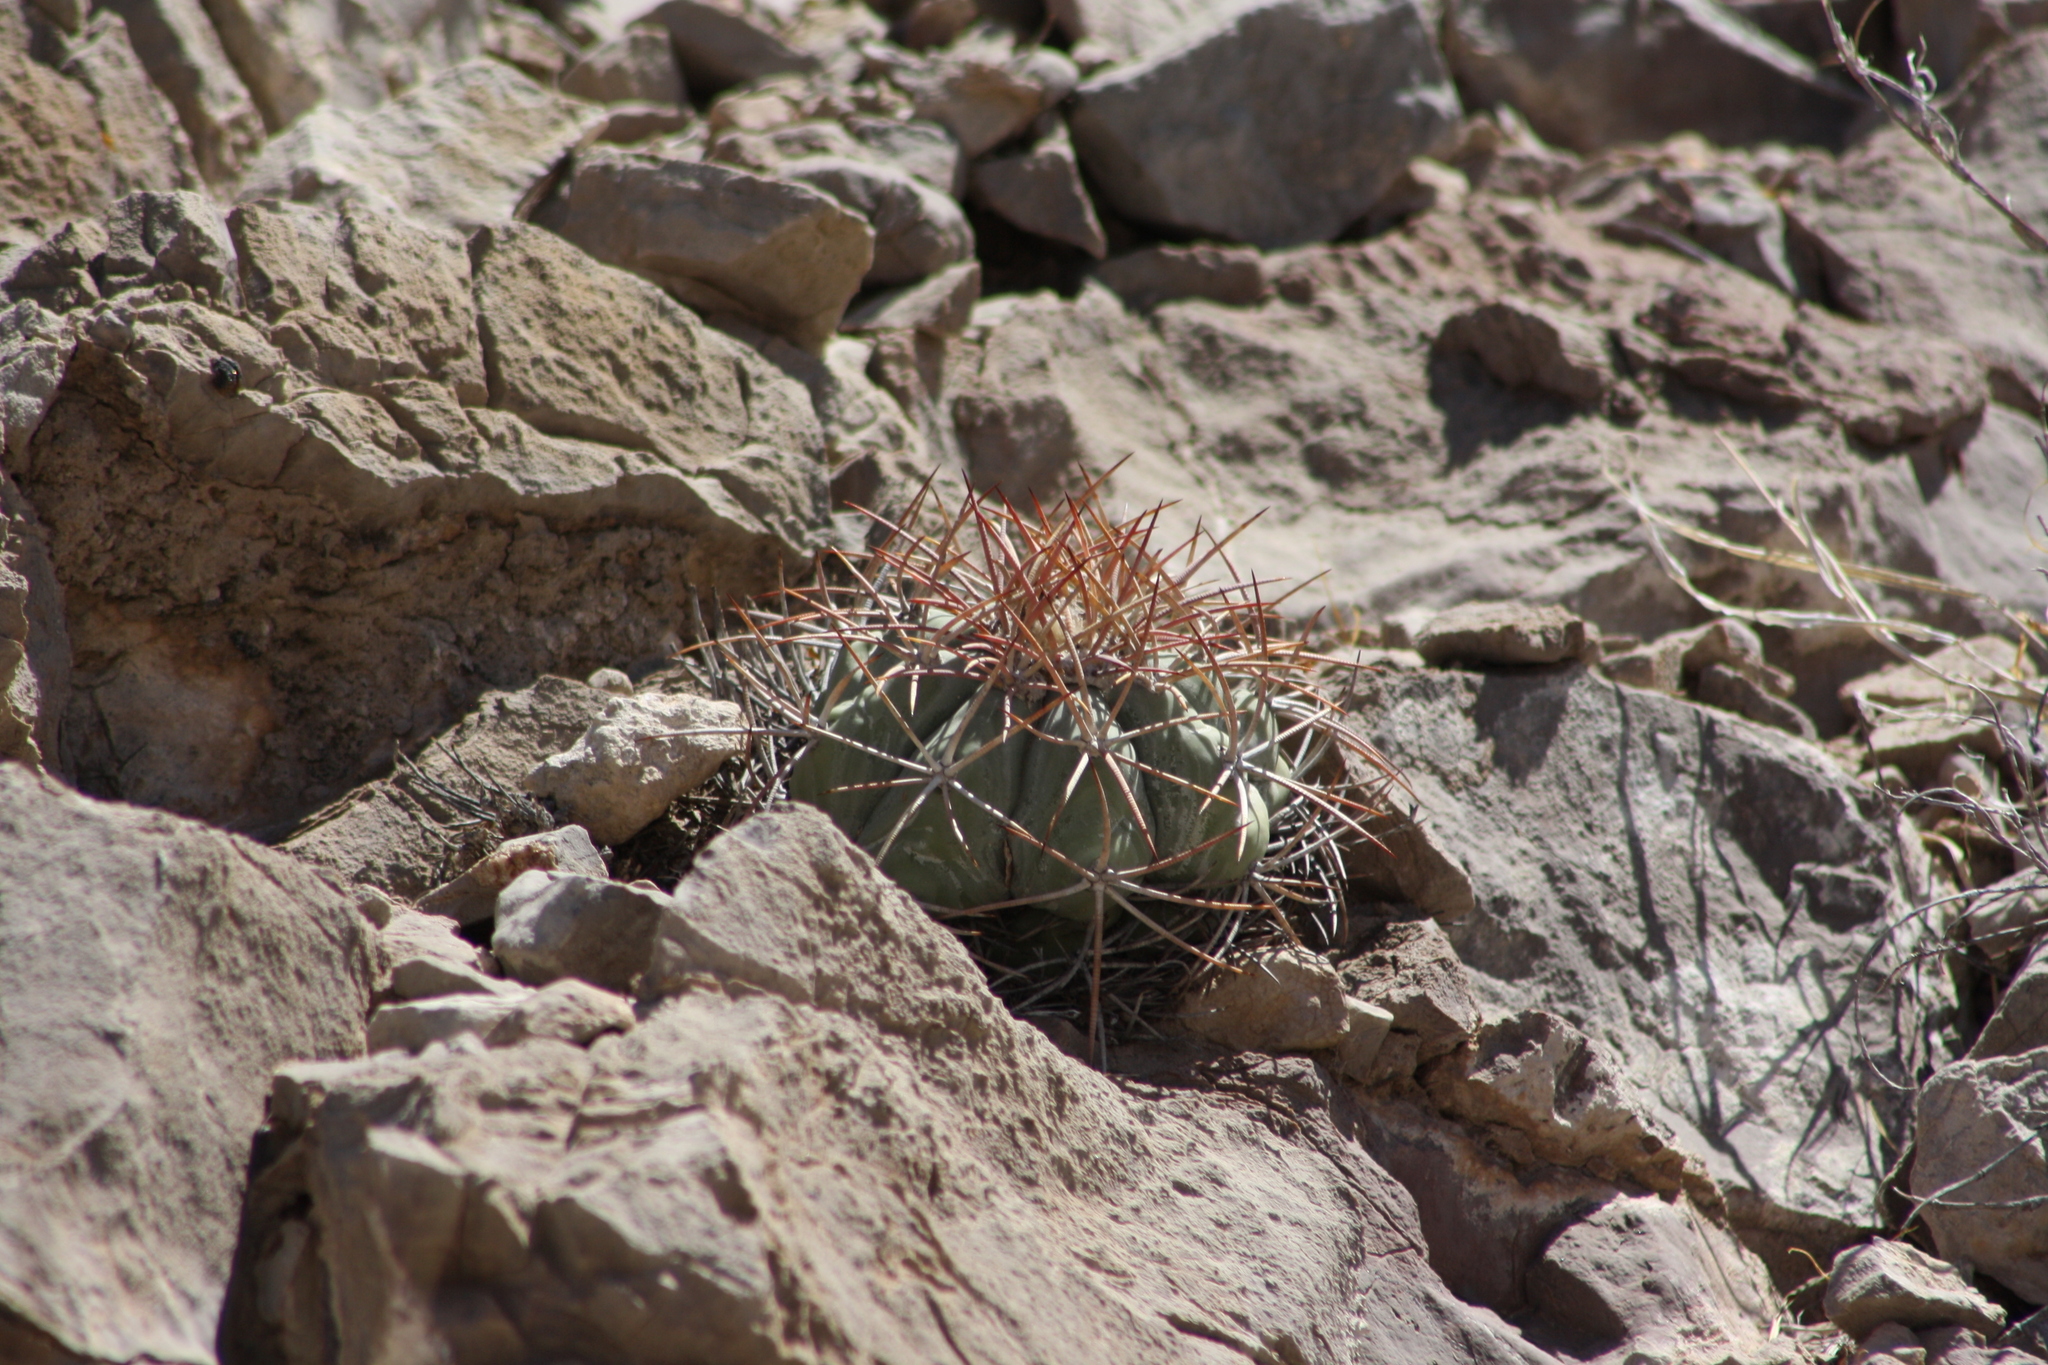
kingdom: Plantae
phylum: Tracheophyta
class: Magnoliopsida
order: Caryophyllales
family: Cactaceae
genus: Echinocactus
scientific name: Echinocactus horizonthalonius
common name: Devilshead
